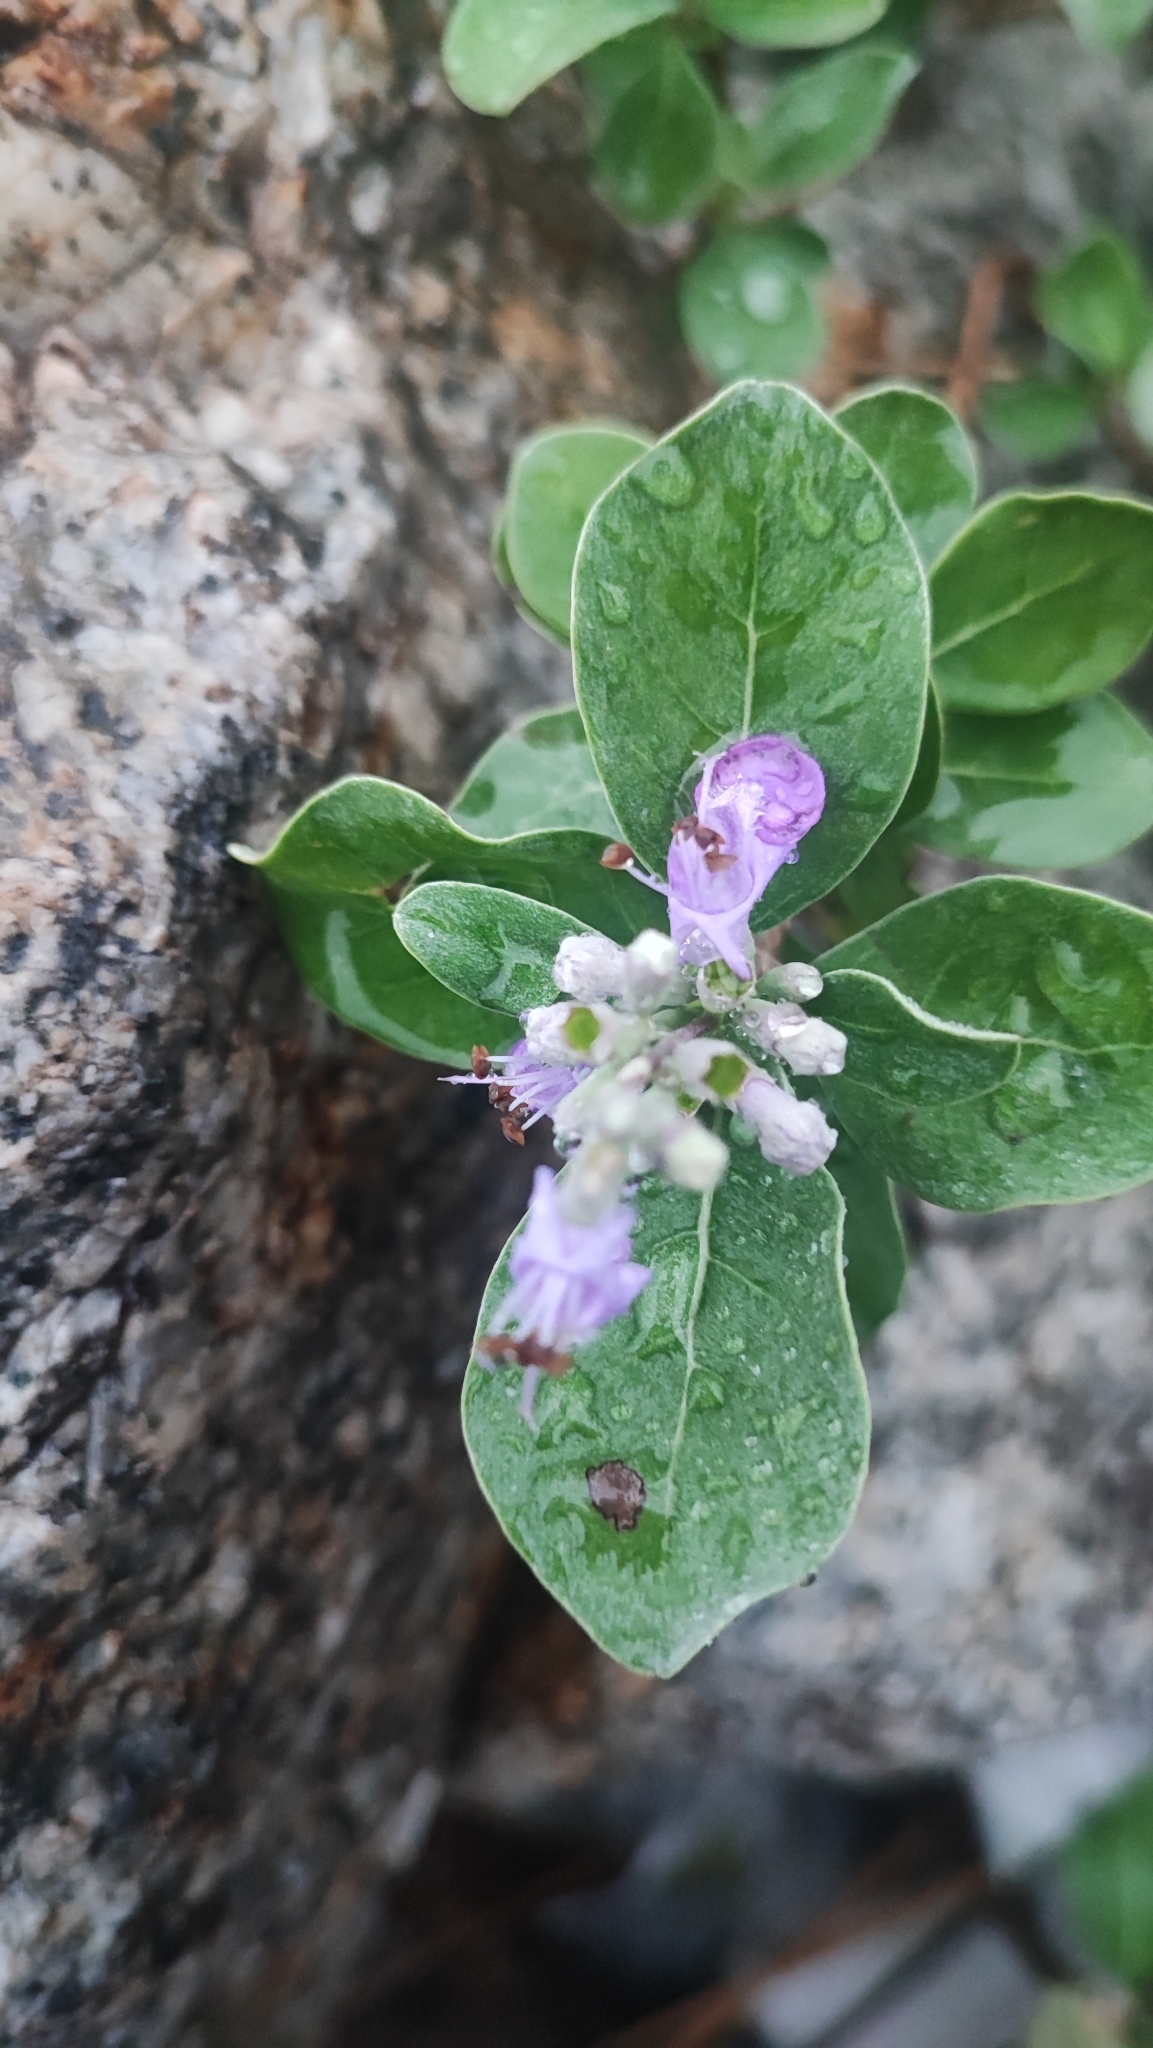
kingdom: Plantae
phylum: Tracheophyta
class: Magnoliopsida
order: Lamiales
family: Lamiaceae
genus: Vitex
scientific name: Vitex rotundifolia
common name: Beach vitex
